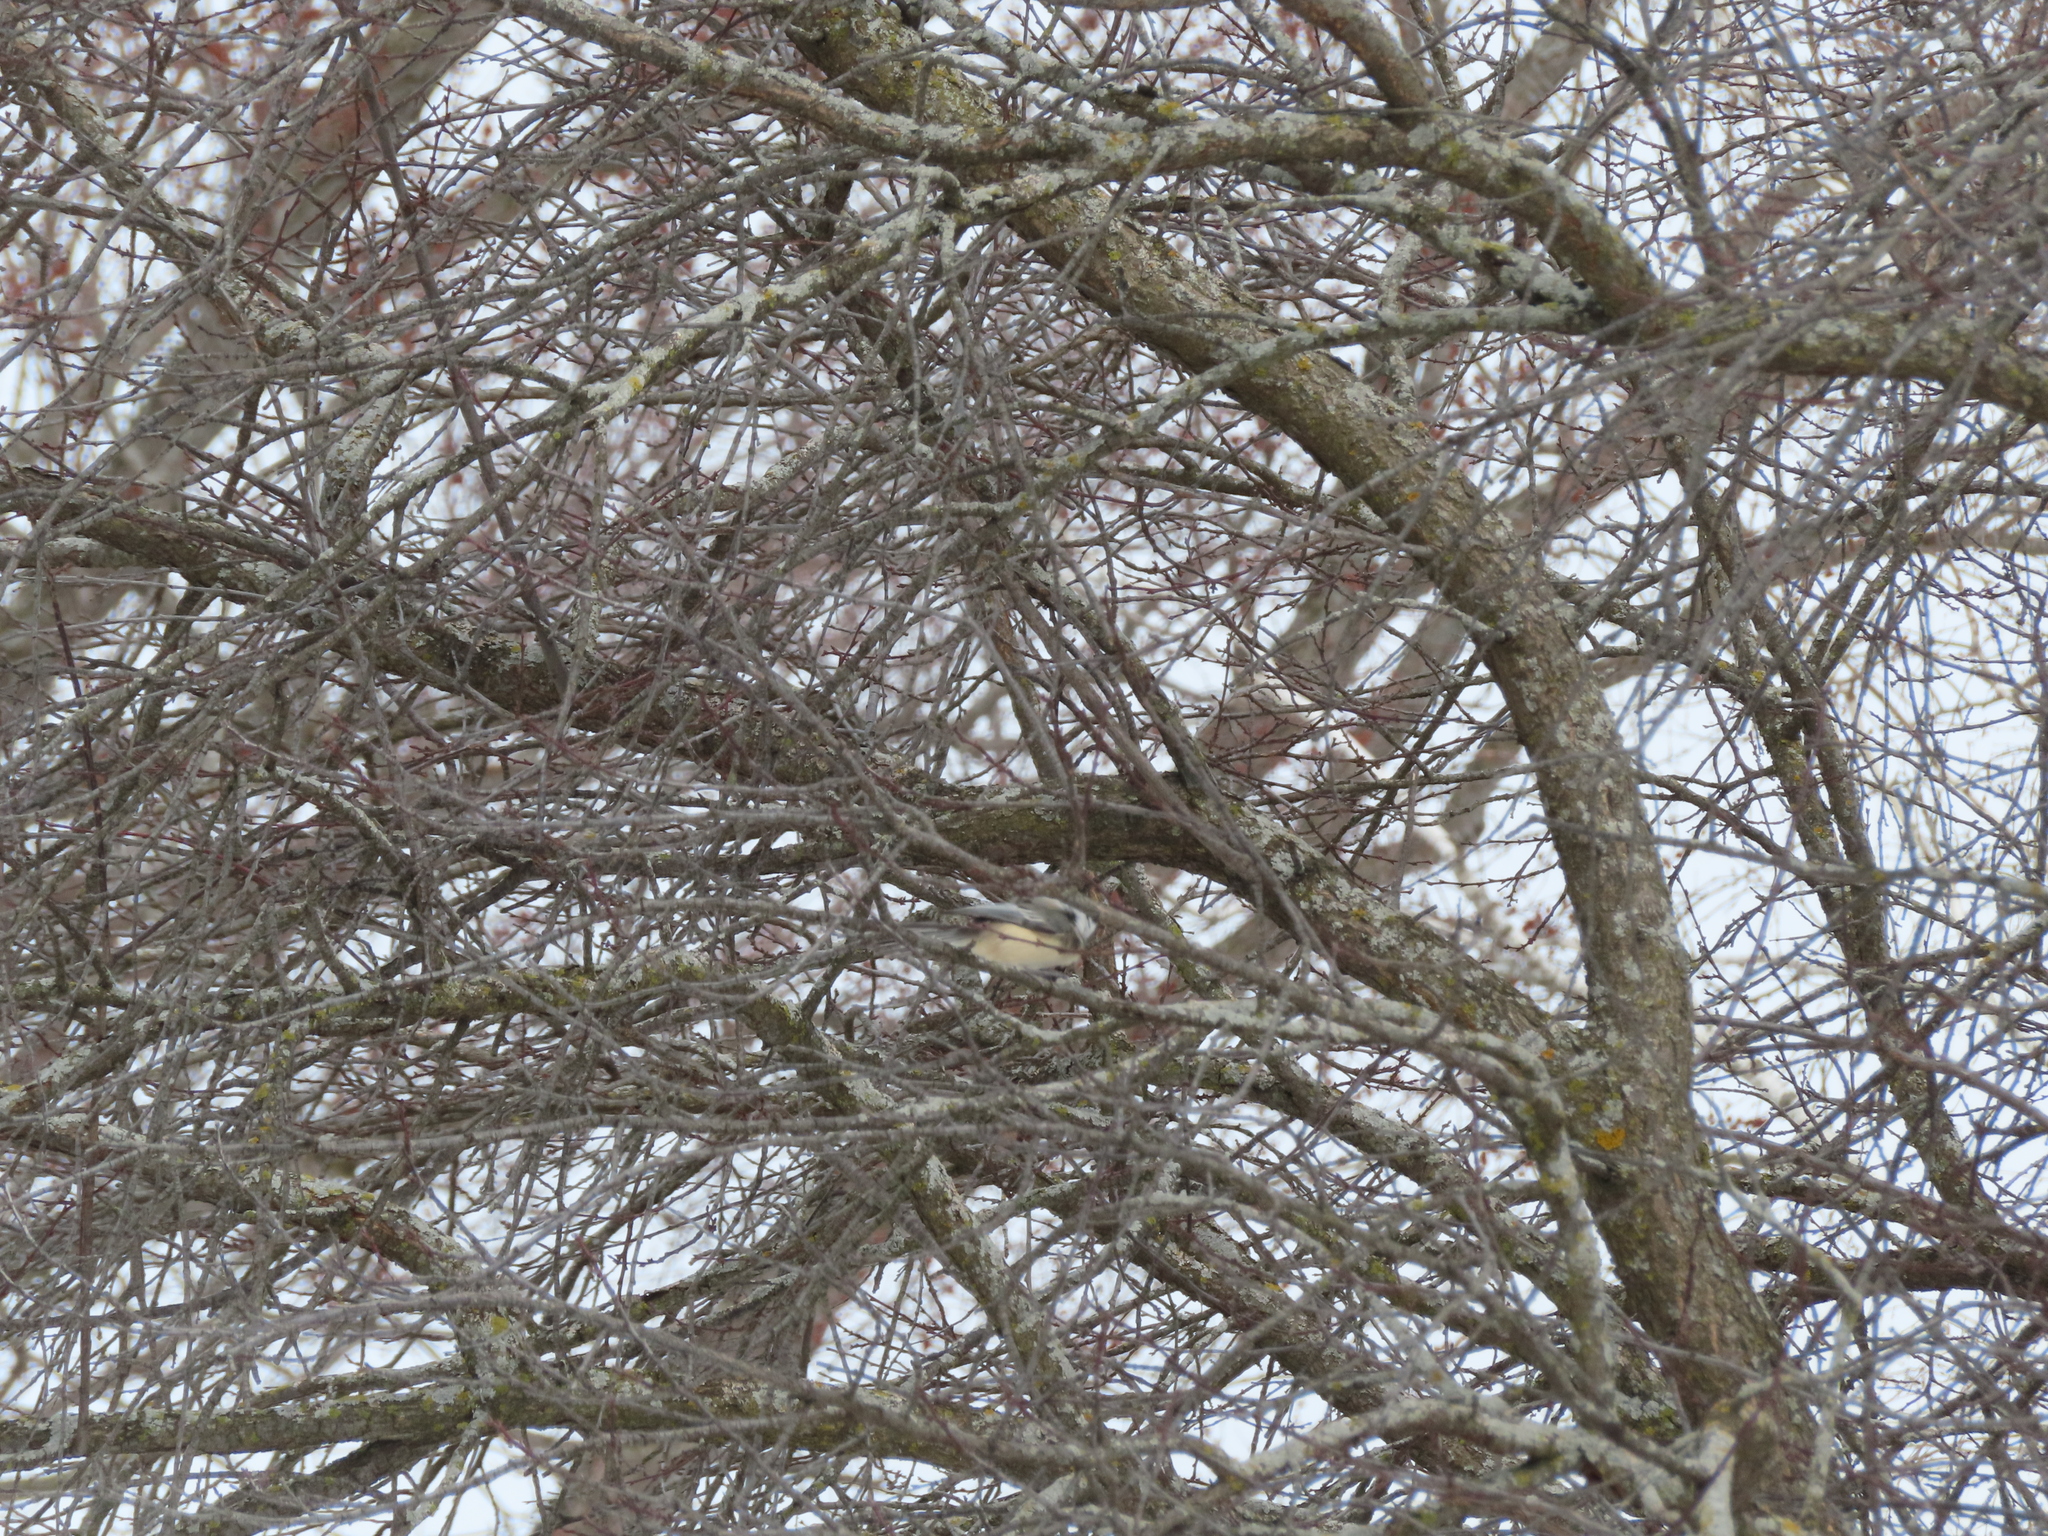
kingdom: Animalia
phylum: Chordata
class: Aves
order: Passeriformes
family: Paridae
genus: Poecile
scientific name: Poecile atricapillus
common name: Black-capped chickadee
